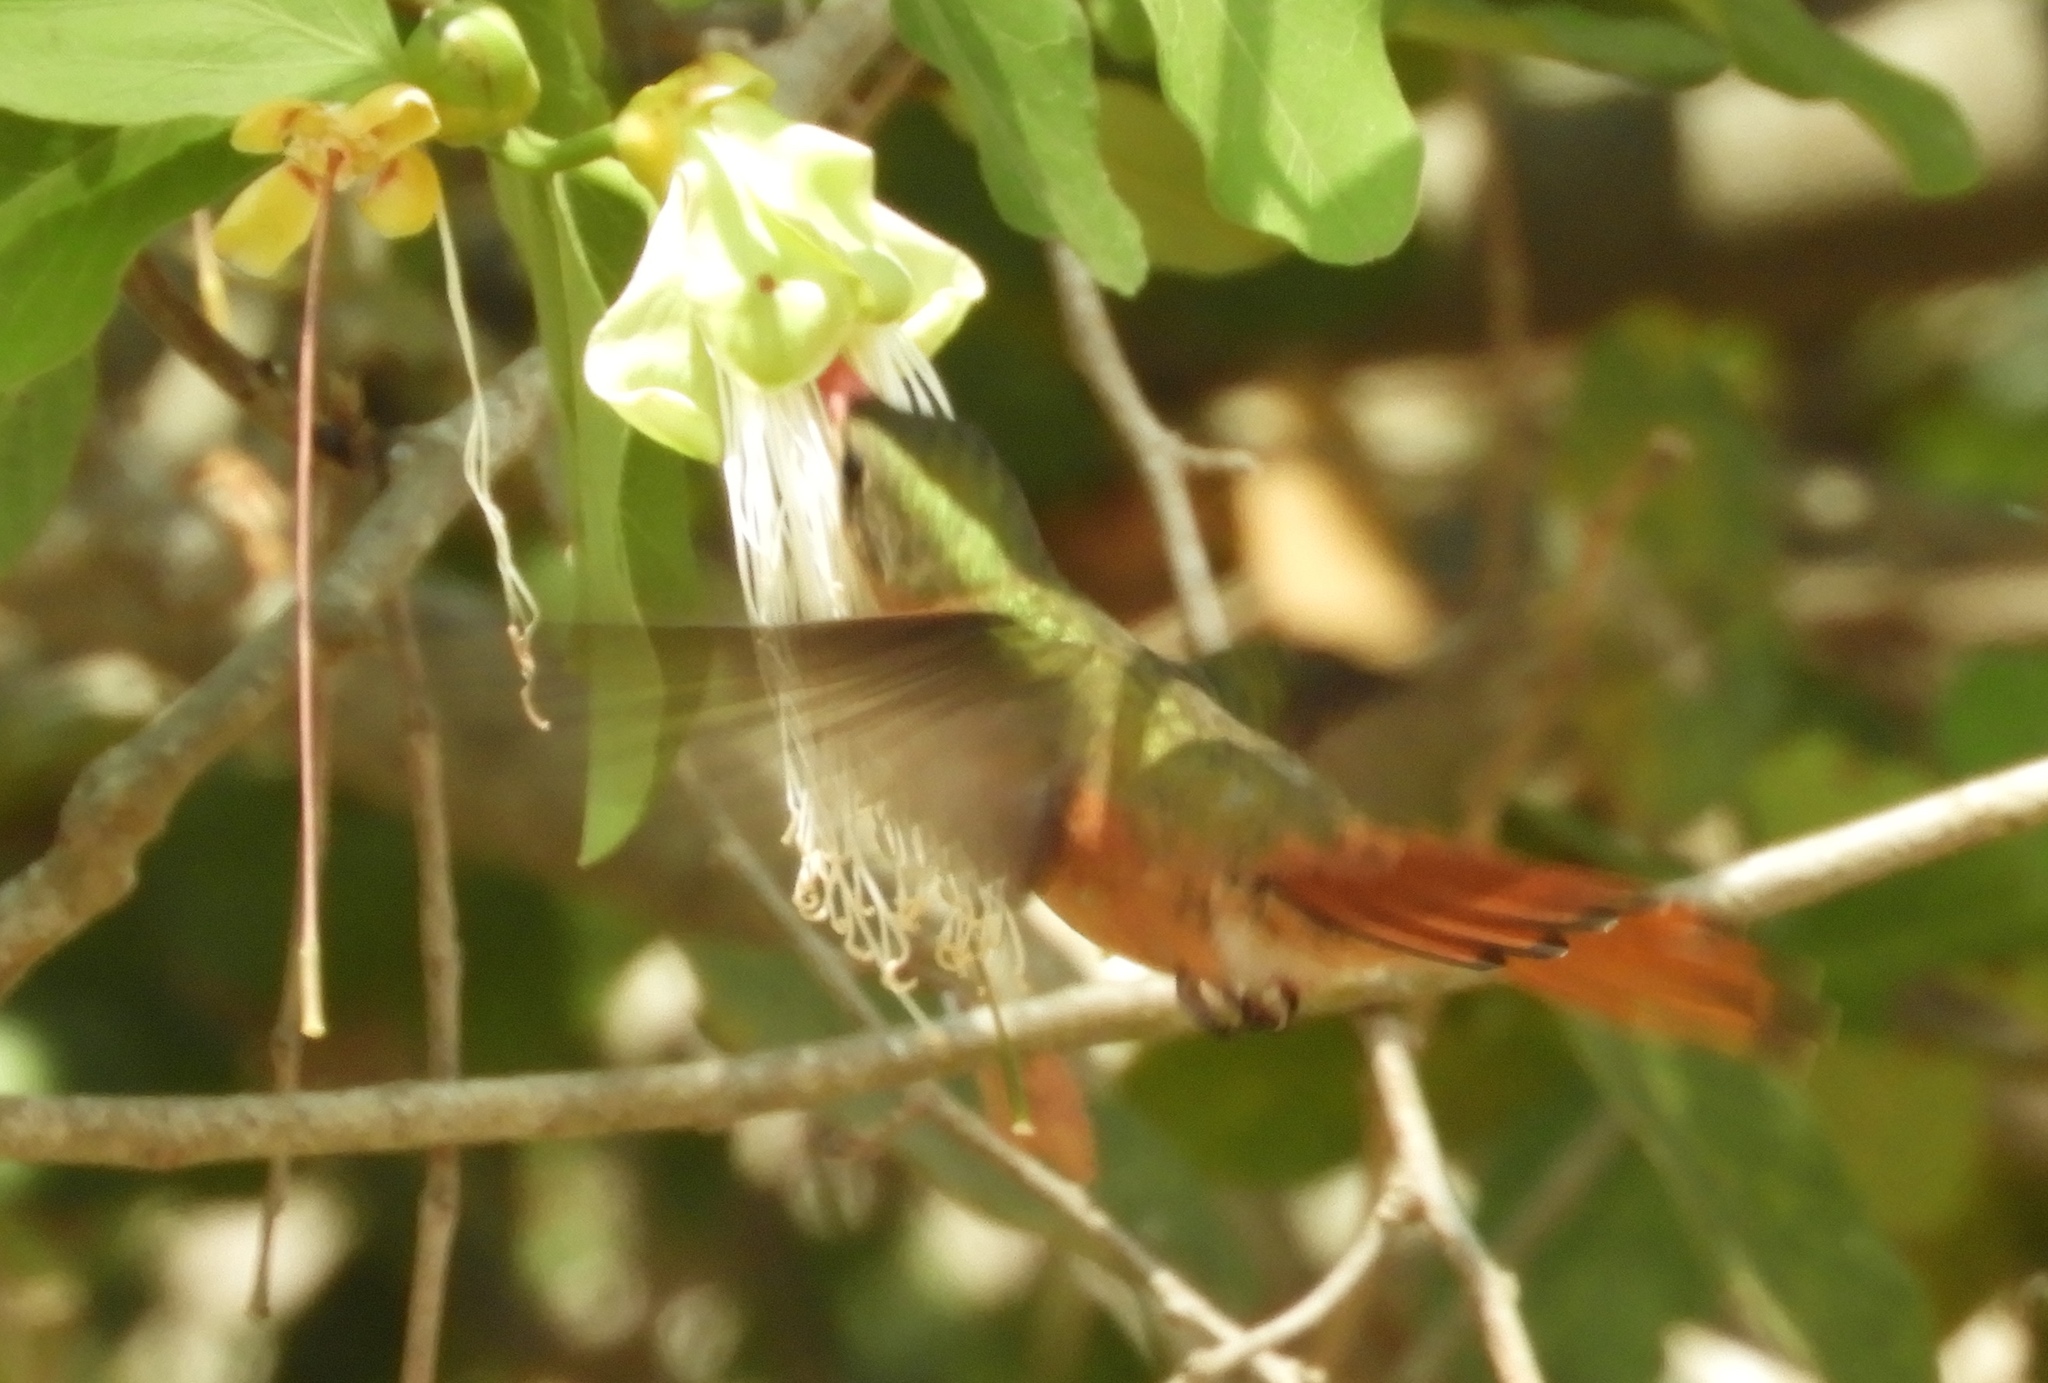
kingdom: Animalia
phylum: Chordata
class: Aves
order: Apodiformes
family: Trochilidae
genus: Amazilia
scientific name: Amazilia rutila
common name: Cinnamon hummingbird
